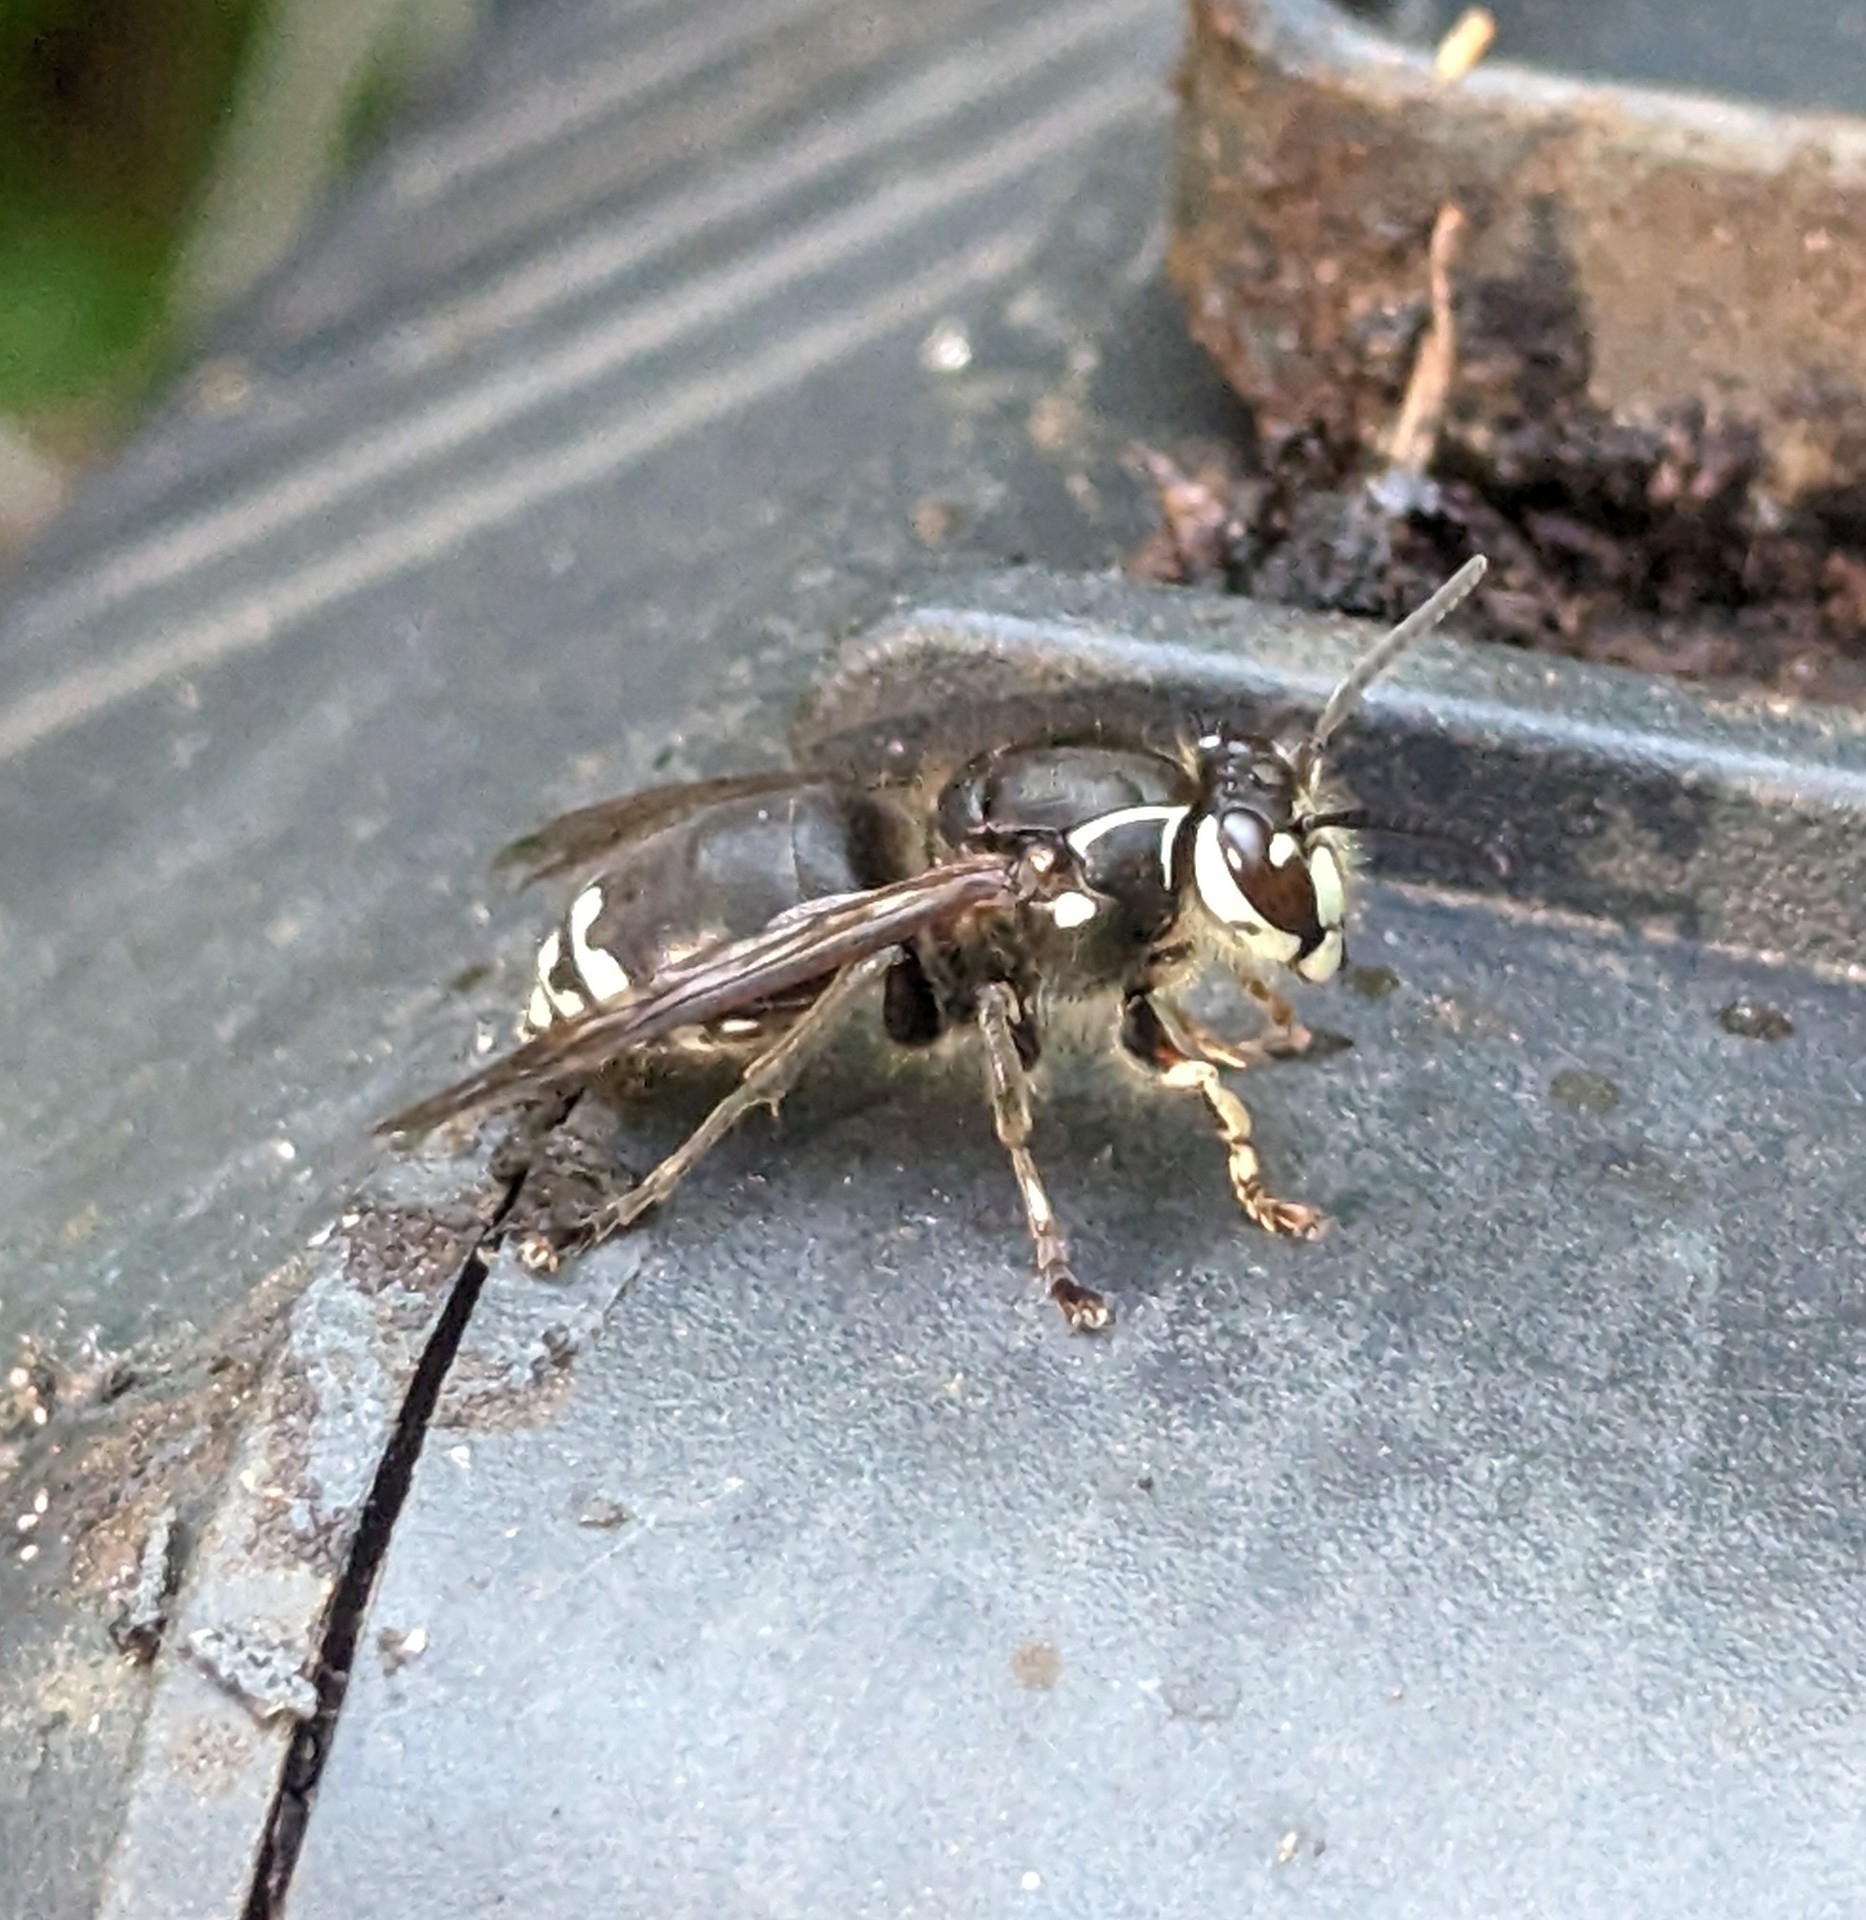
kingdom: Animalia
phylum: Arthropoda
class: Insecta
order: Hymenoptera
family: Vespidae
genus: Dolichovespula
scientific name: Dolichovespula maculata
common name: Bald-faced hornet
